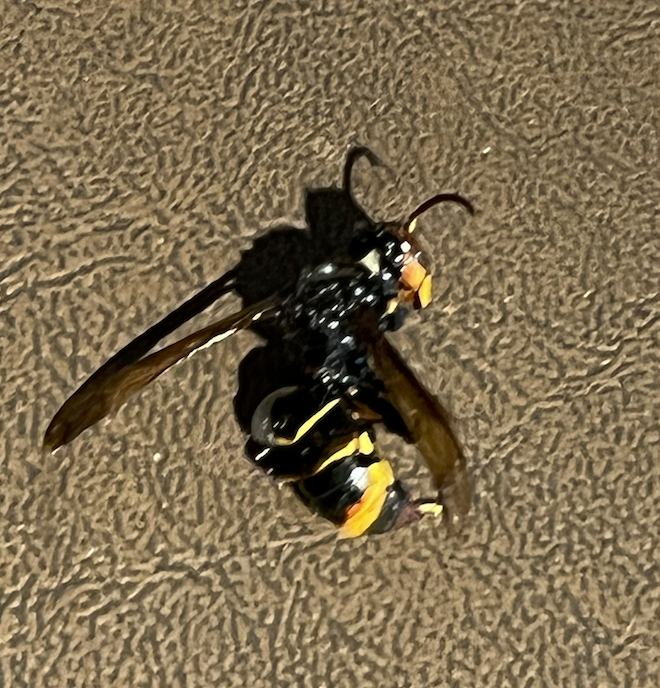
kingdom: Animalia
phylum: Arthropoda
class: Insecta
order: Hymenoptera
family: Vespidae
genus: Vespa
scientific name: Vespa velutina
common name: Asian hornet
